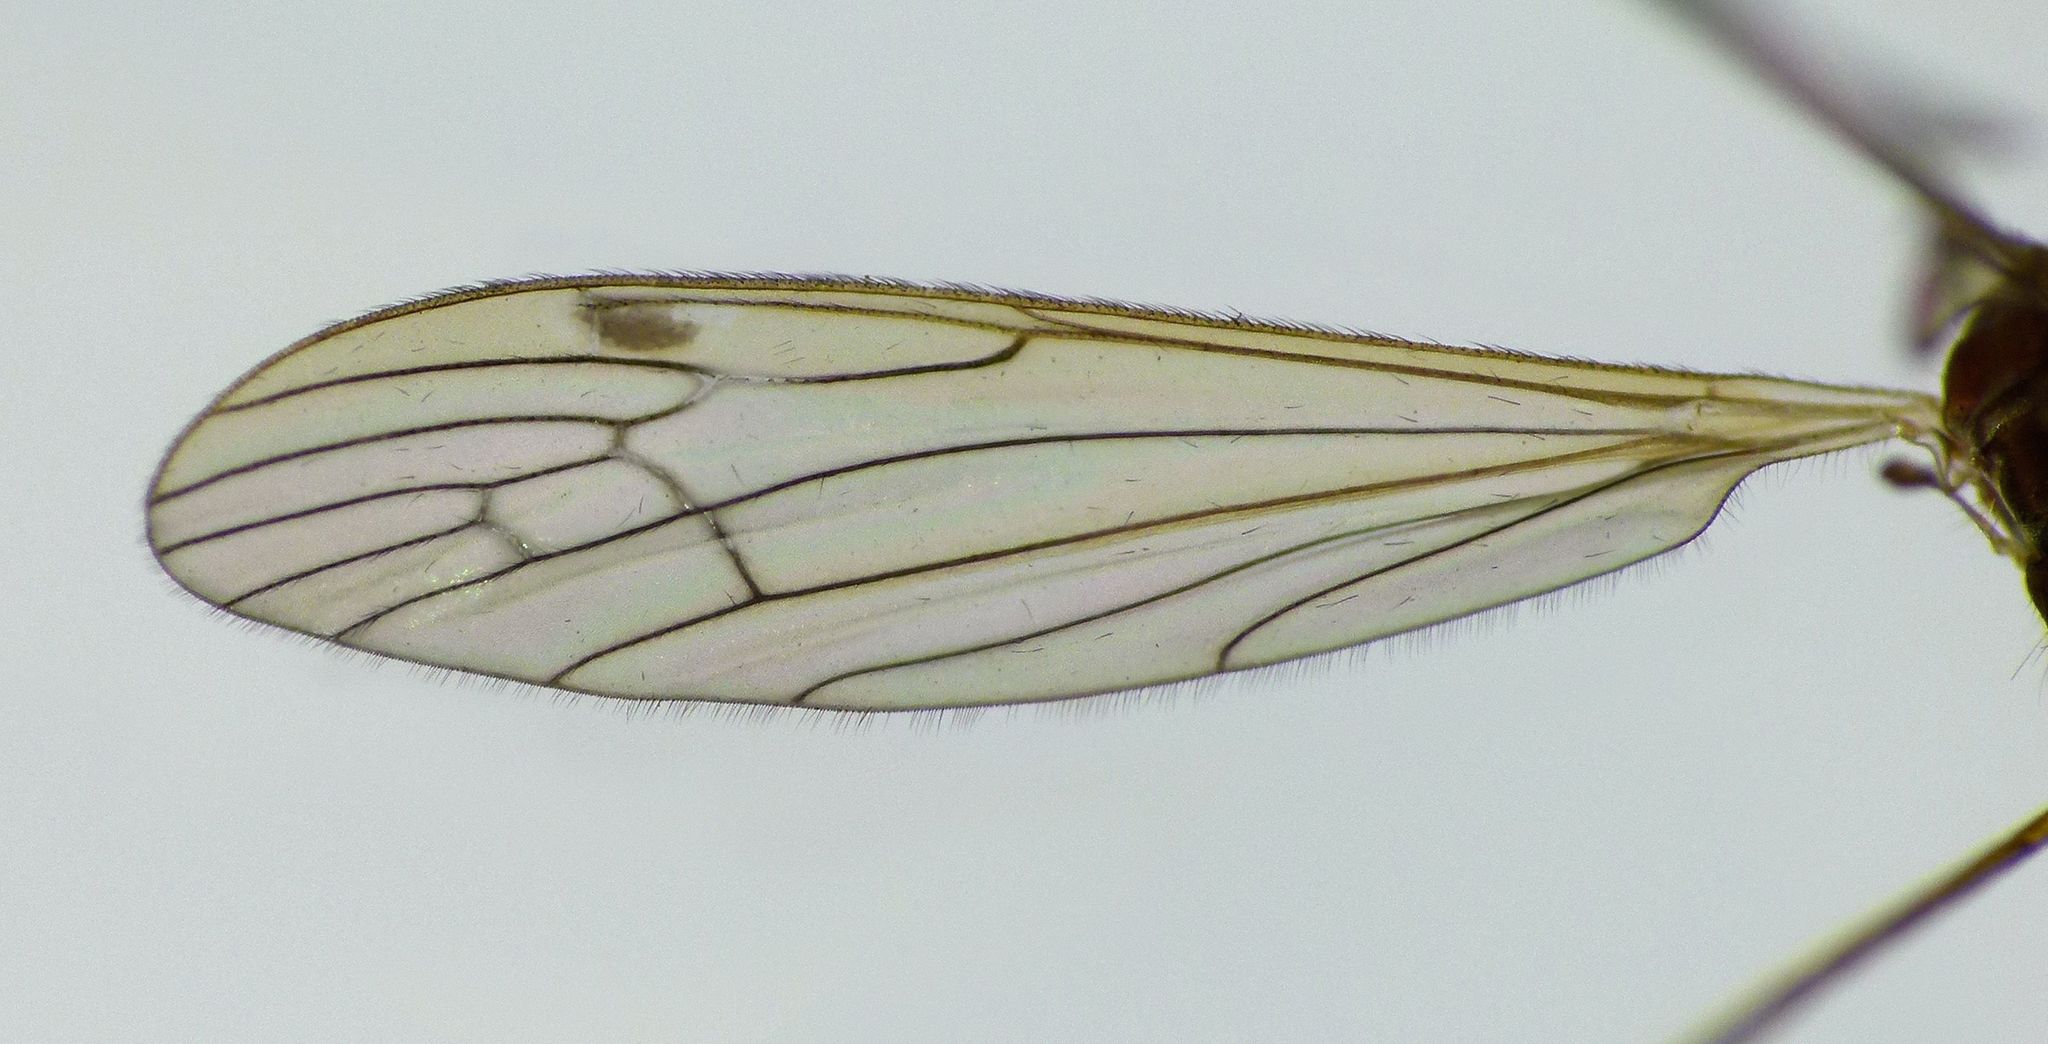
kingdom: Animalia
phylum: Arthropoda
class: Insecta
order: Diptera
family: Limoniidae
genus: Dicranomyia
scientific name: Dicranomyia melanogramma
